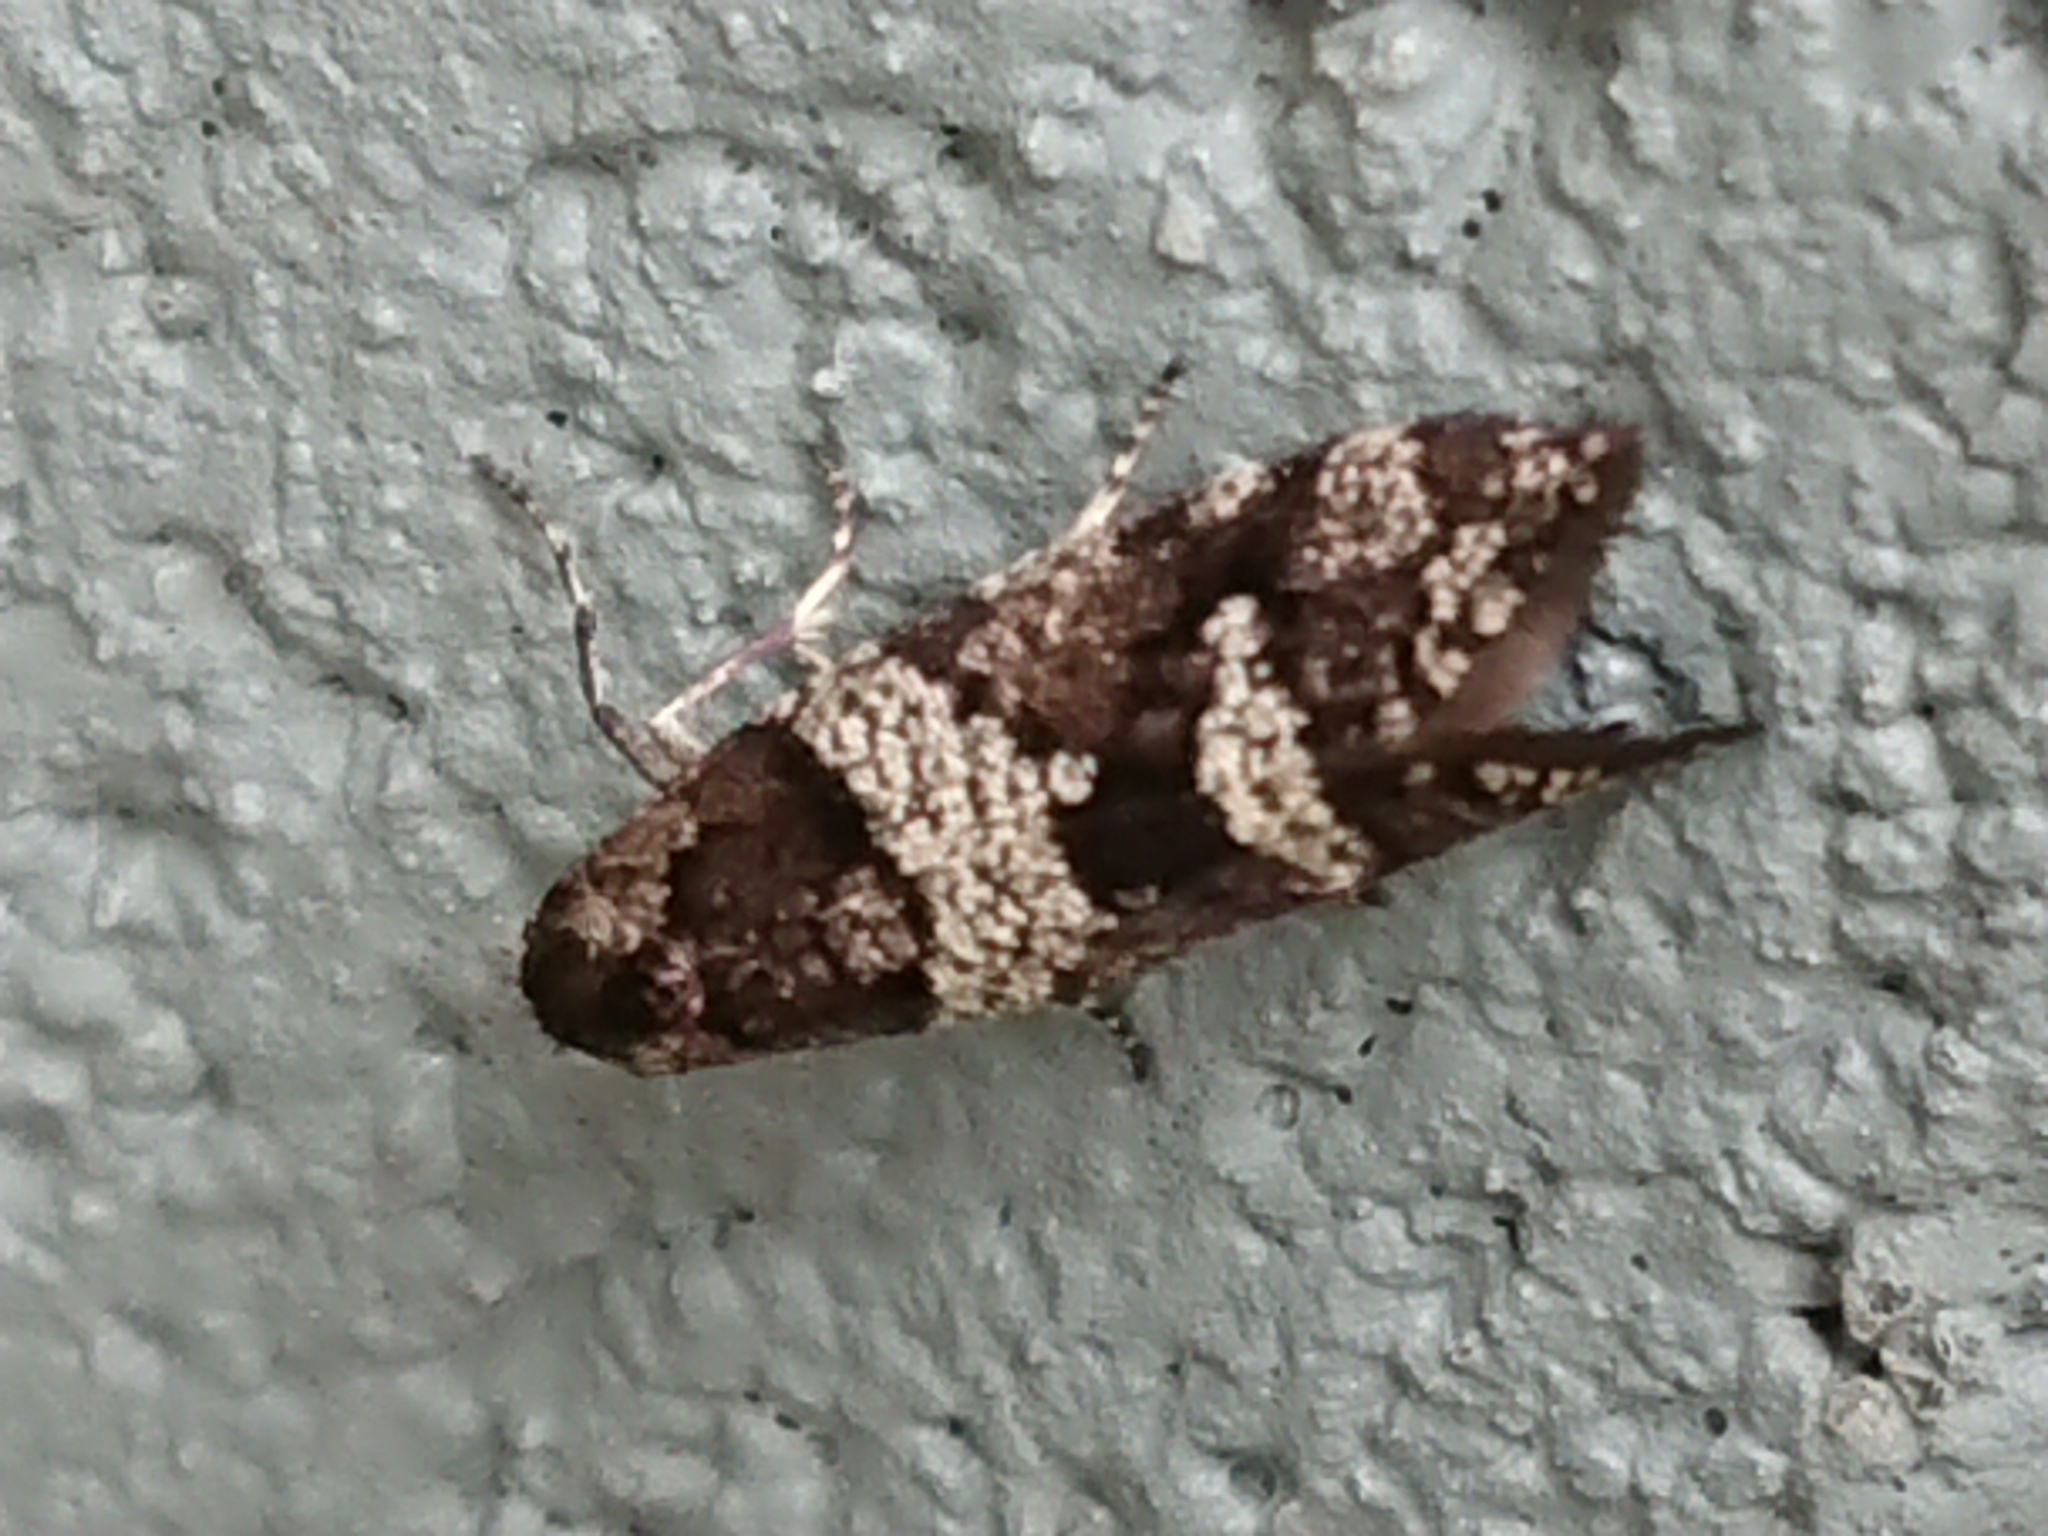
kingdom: Animalia
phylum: Arthropoda
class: Insecta
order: Lepidoptera
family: Psychidae
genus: Lepidoscia
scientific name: Lepidoscia heliochares
